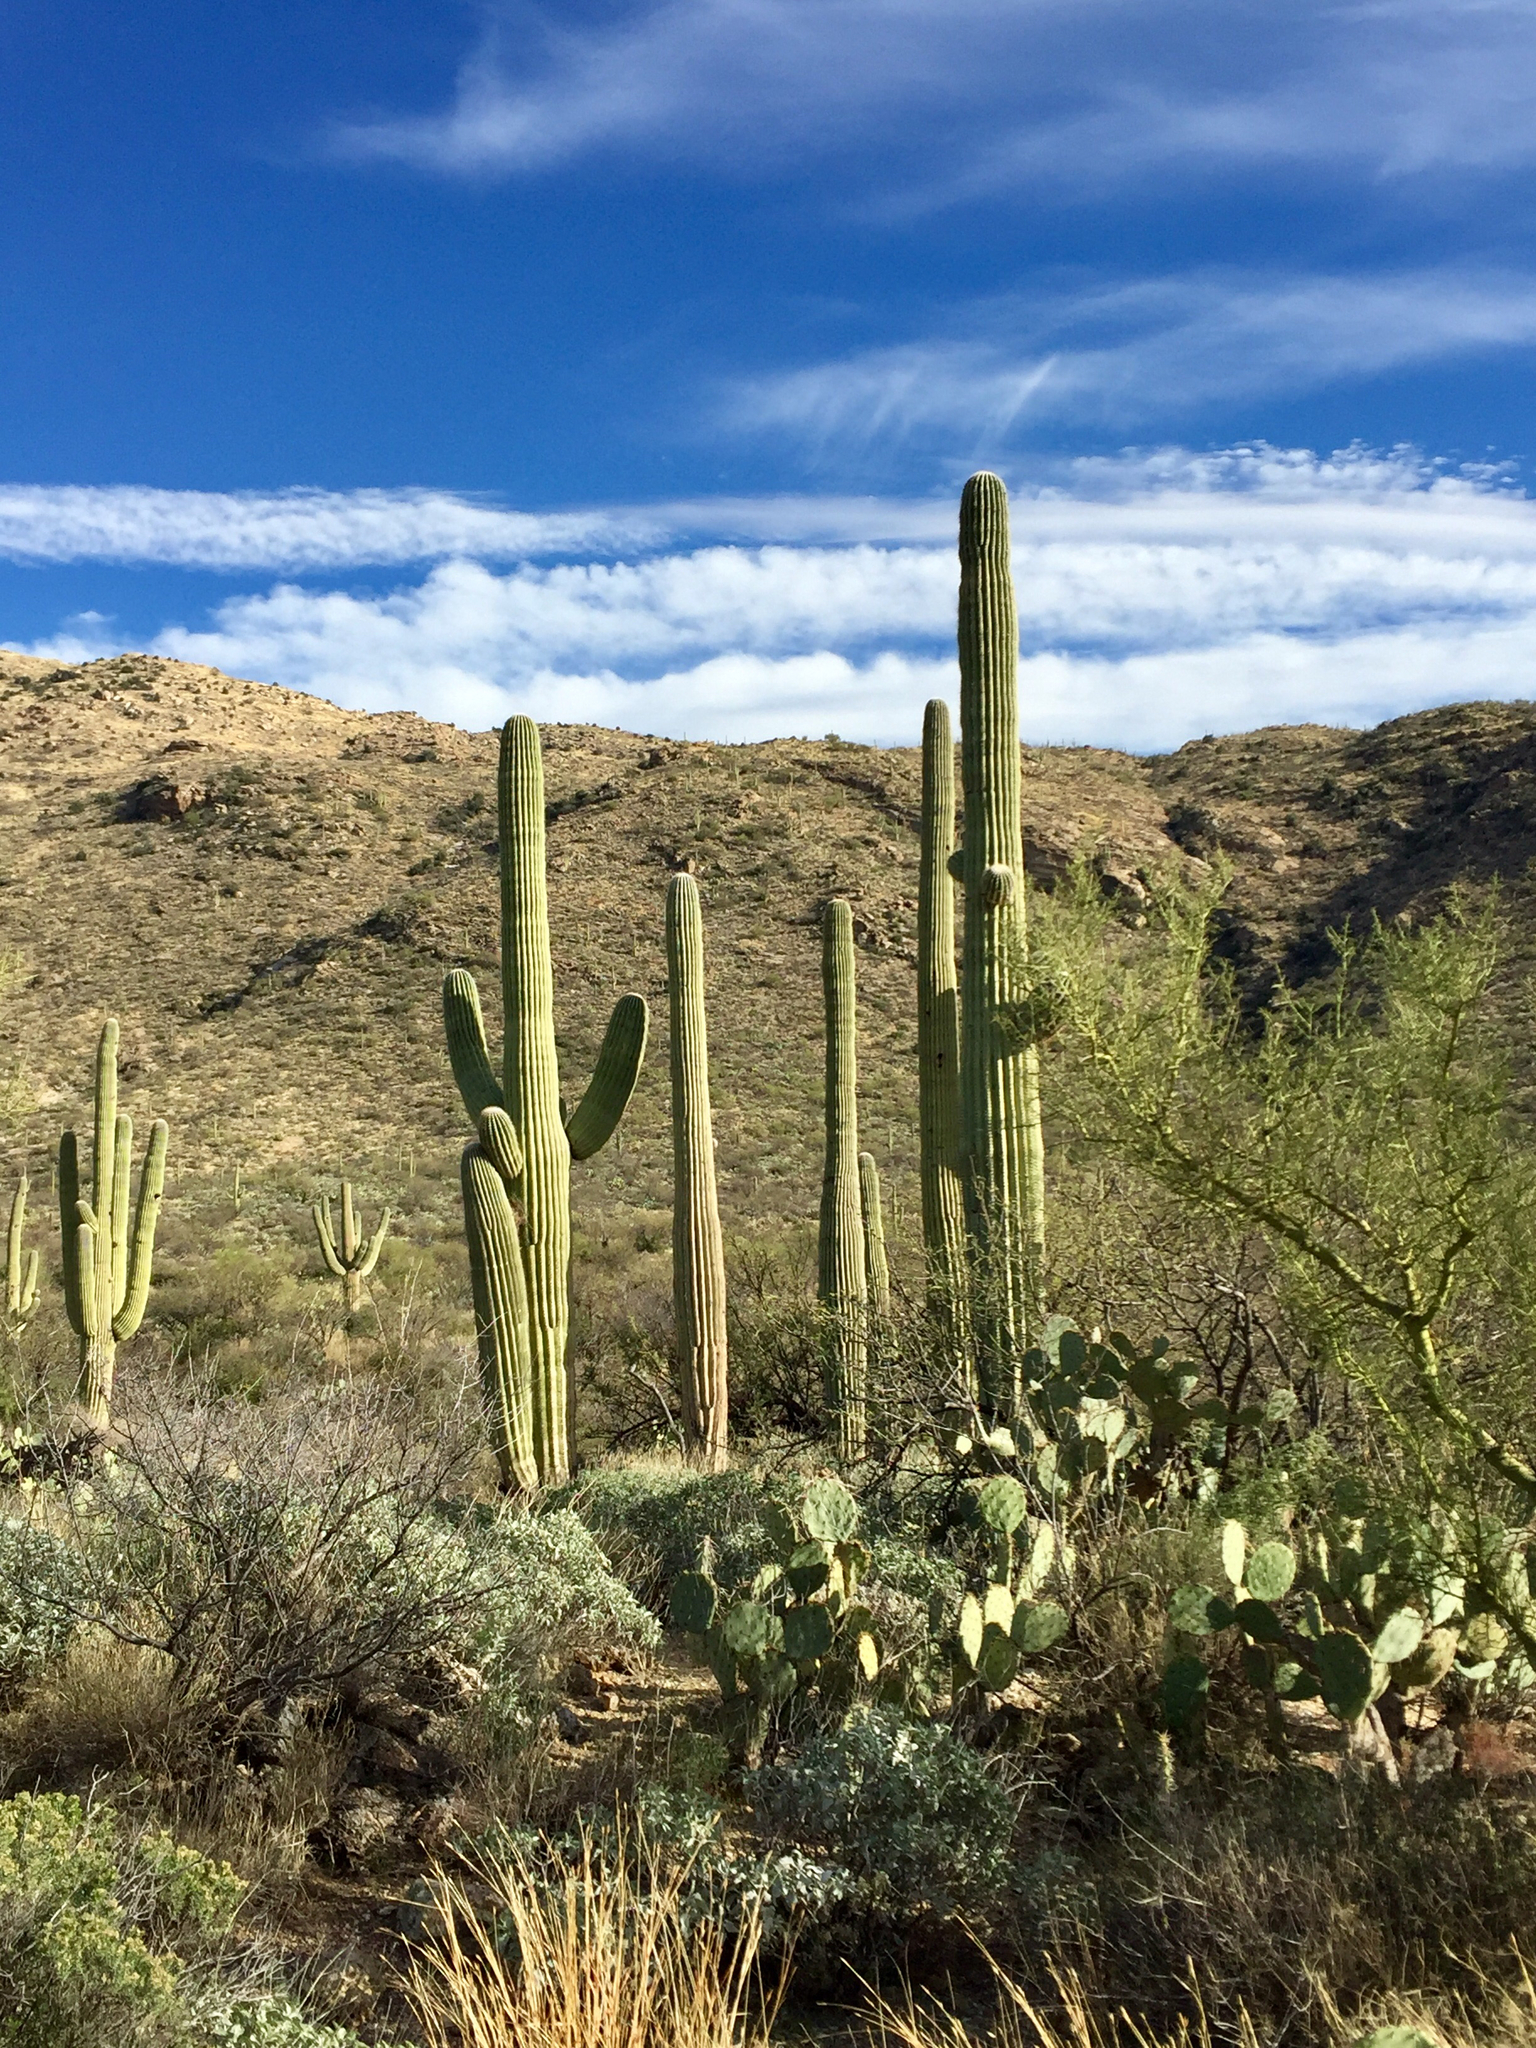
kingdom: Plantae
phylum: Tracheophyta
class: Magnoliopsida
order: Caryophyllales
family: Cactaceae
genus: Carnegiea
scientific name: Carnegiea gigantea
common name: Saguaro
